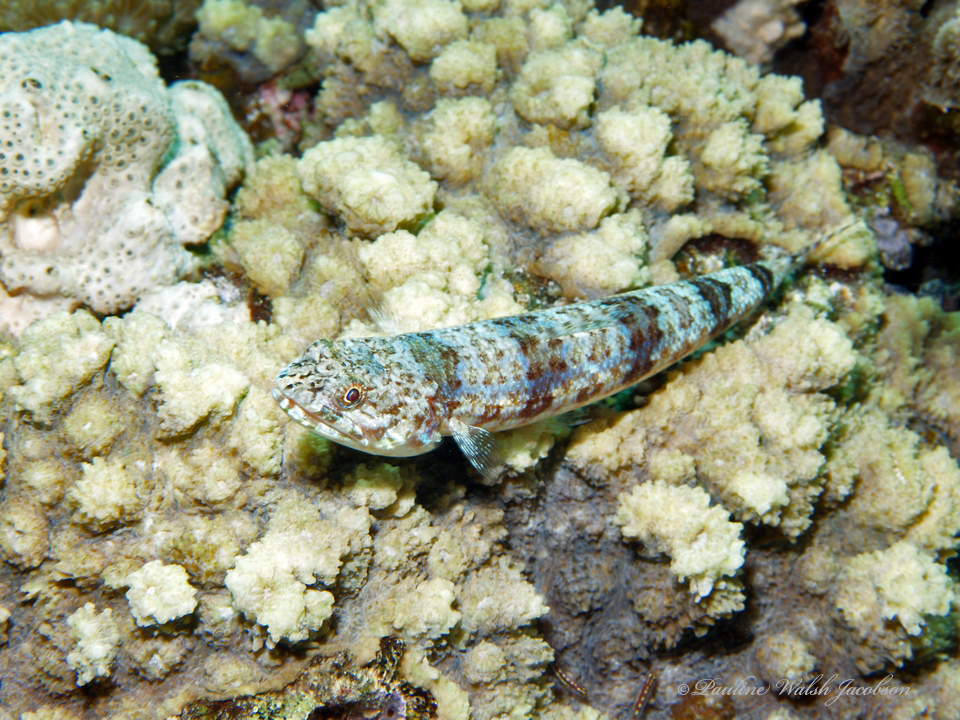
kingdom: Animalia
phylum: Chordata
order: Aulopiformes
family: Synodontidae
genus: Synodus
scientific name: Synodus dermatogenys
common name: Banded lizardfish
